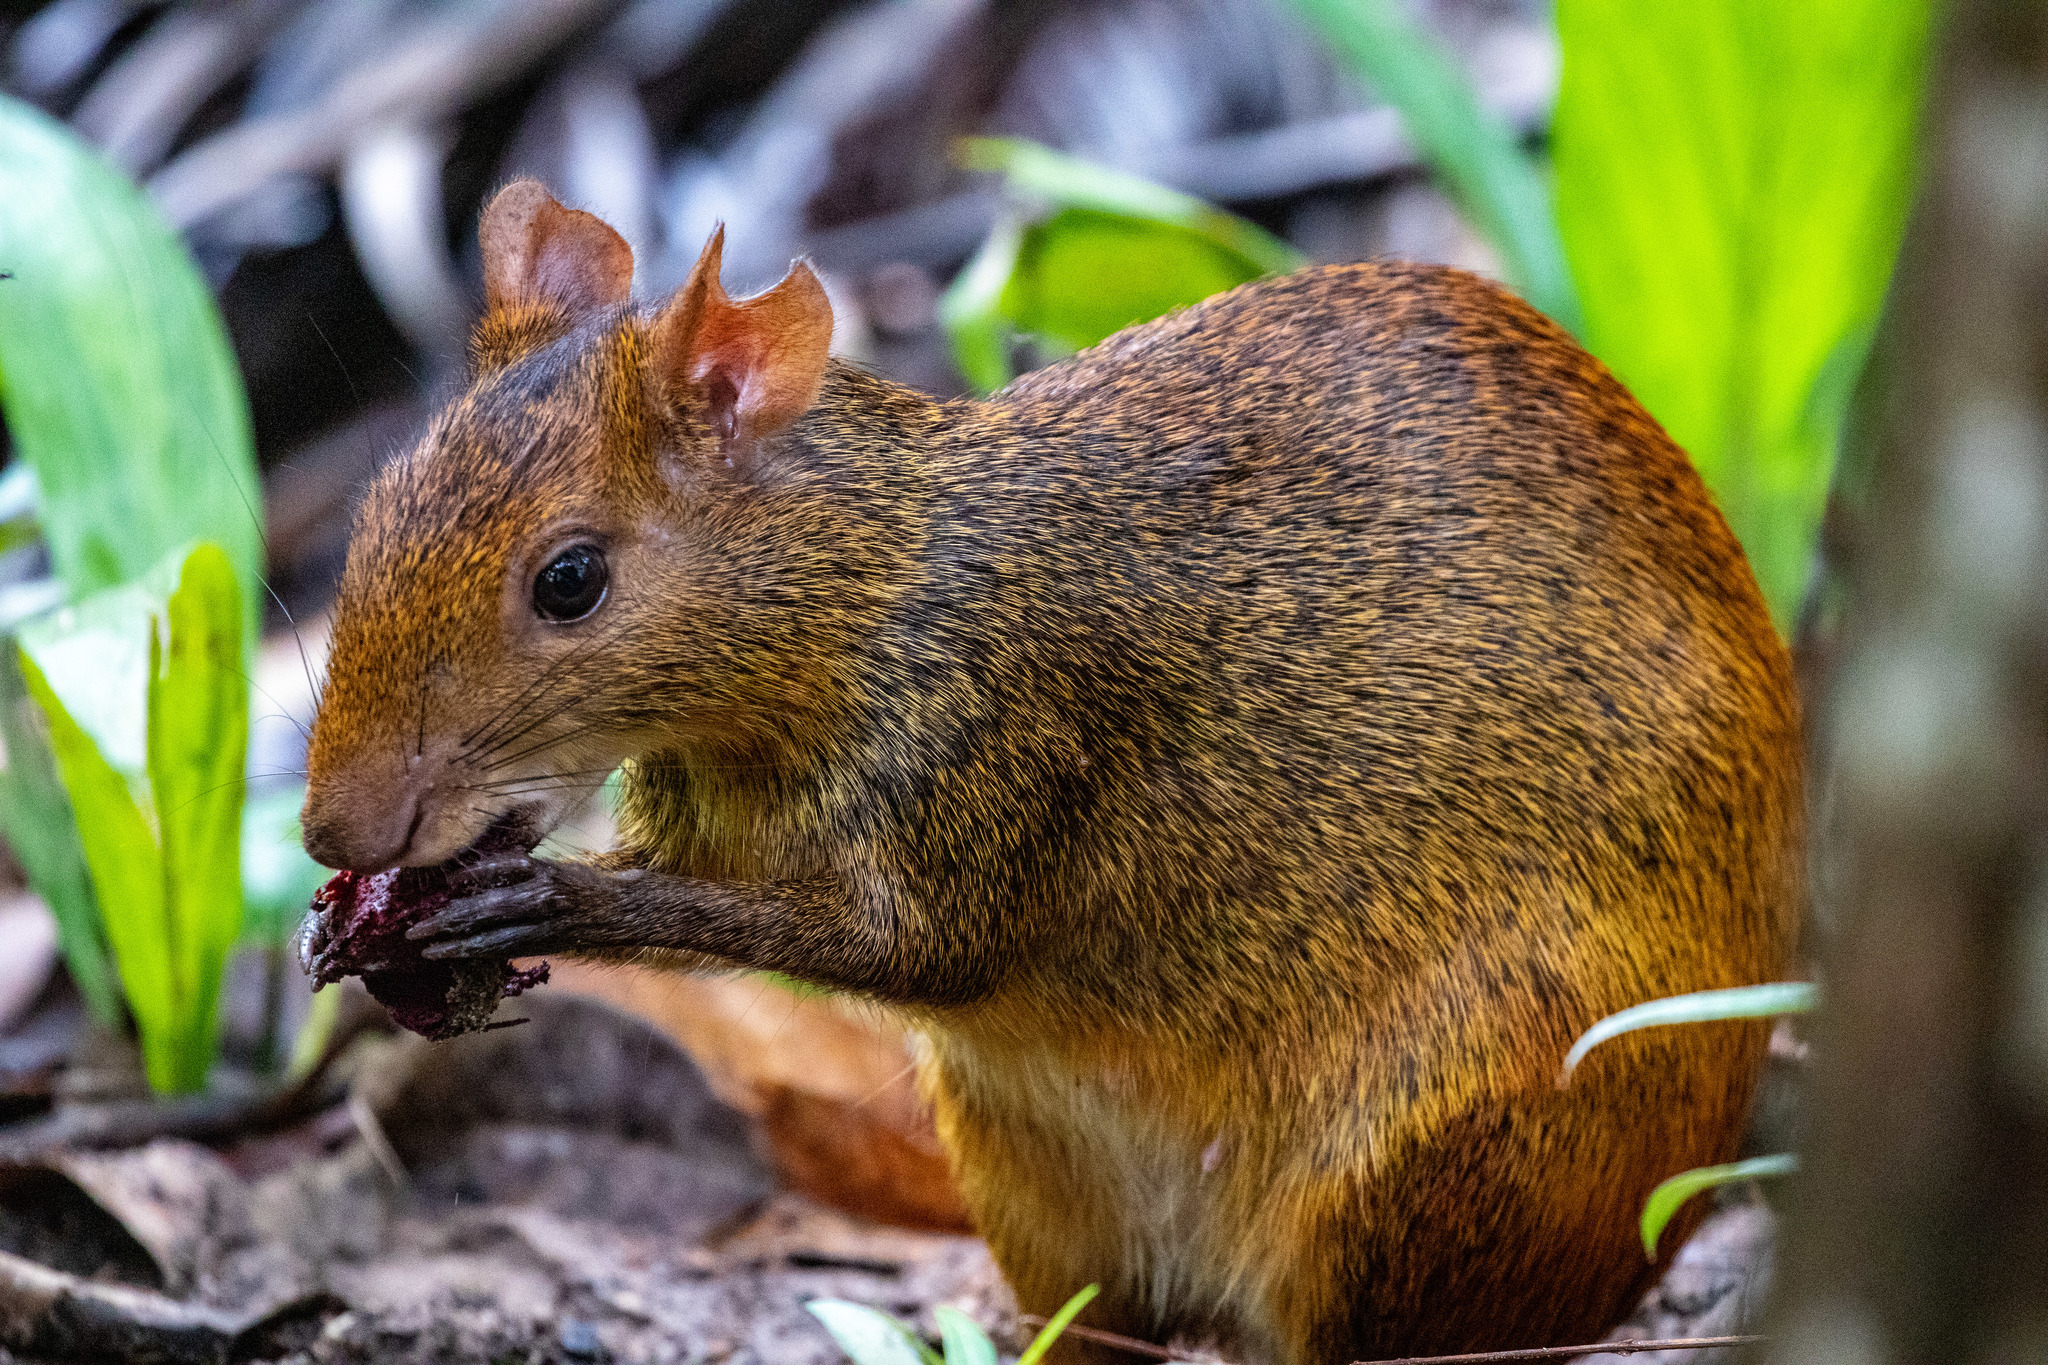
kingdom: Animalia
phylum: Chordata
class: Mammalia
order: Rodentia
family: Dasyproctidae
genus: Dasyprocta
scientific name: Dasyprocta iacki
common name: Iack’s red-rumped agouti
